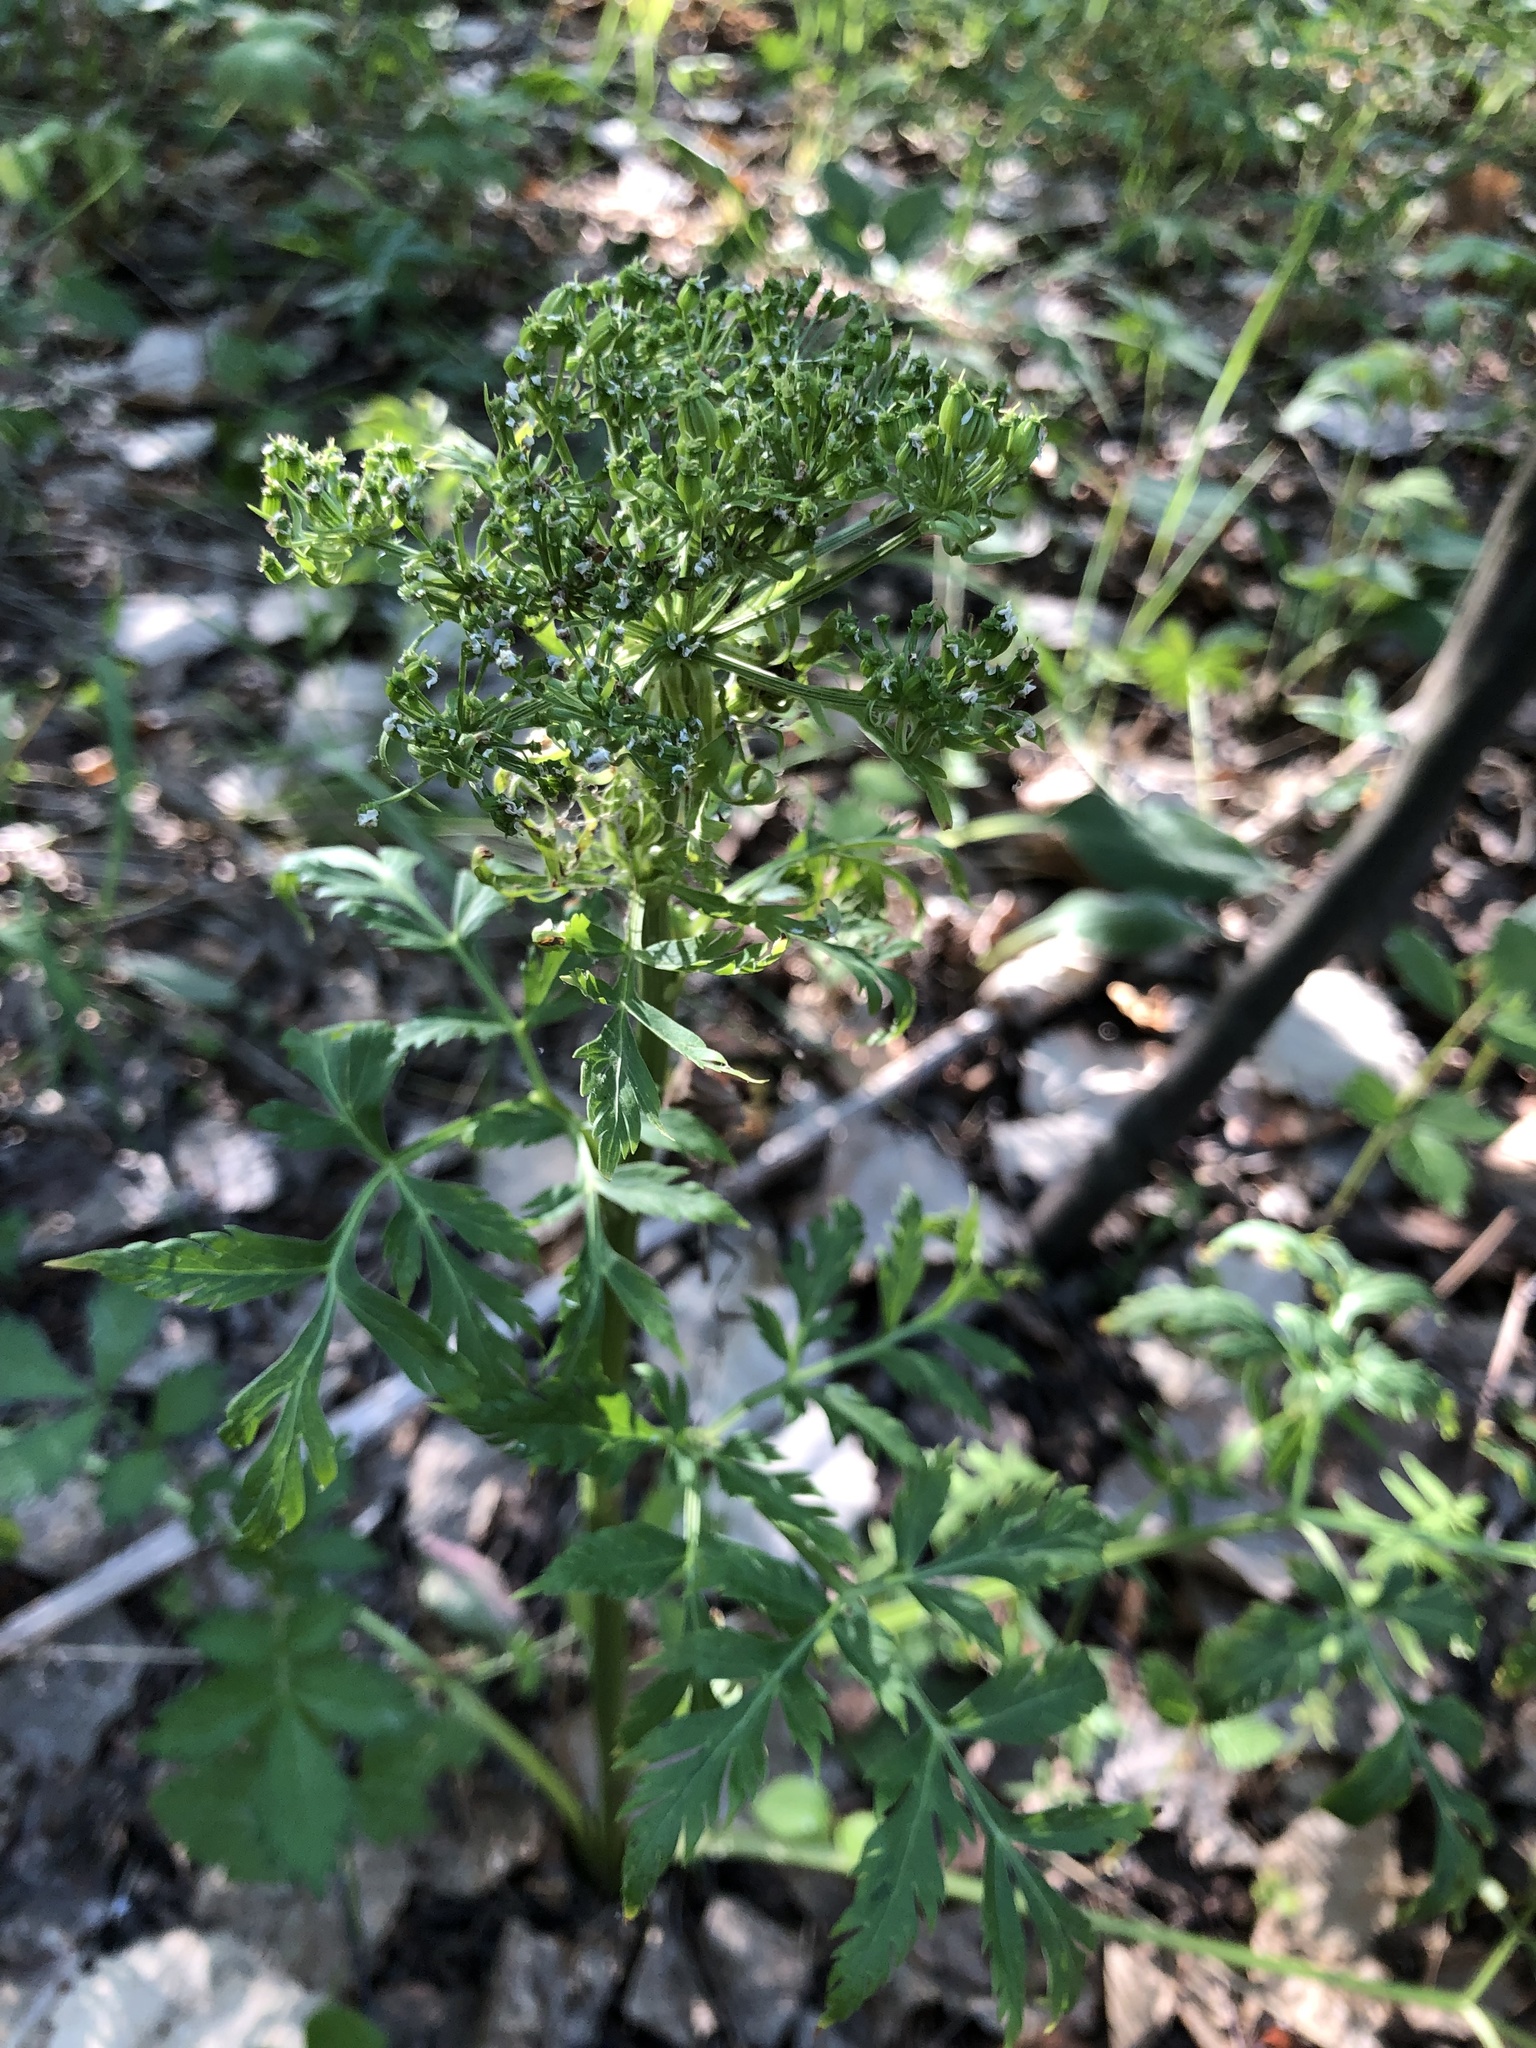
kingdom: Plantae
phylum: Tracheophyta
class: Magnoliopsida
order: Apiales
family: Apiaceae
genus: Pleurospermum
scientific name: Pleurospermum uralense
